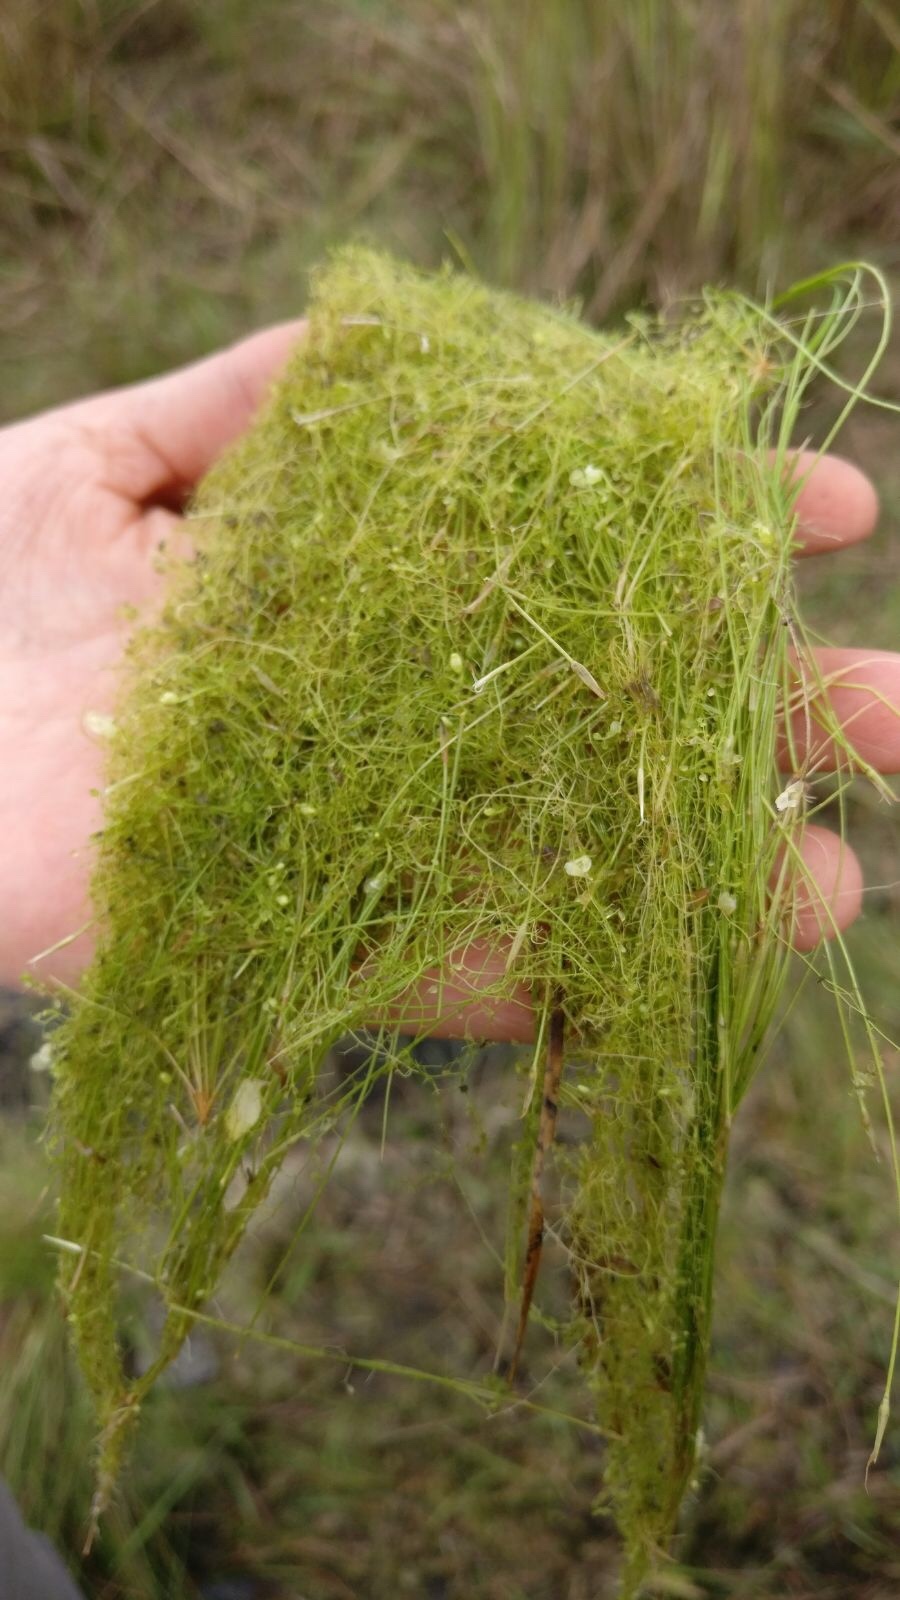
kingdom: Plantae
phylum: Tracheophyta
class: Magnoliopsida
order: Lamiales
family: Lentibulariaceae
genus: Utricularia
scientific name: Utricularia gibba
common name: Humped bladderwort
